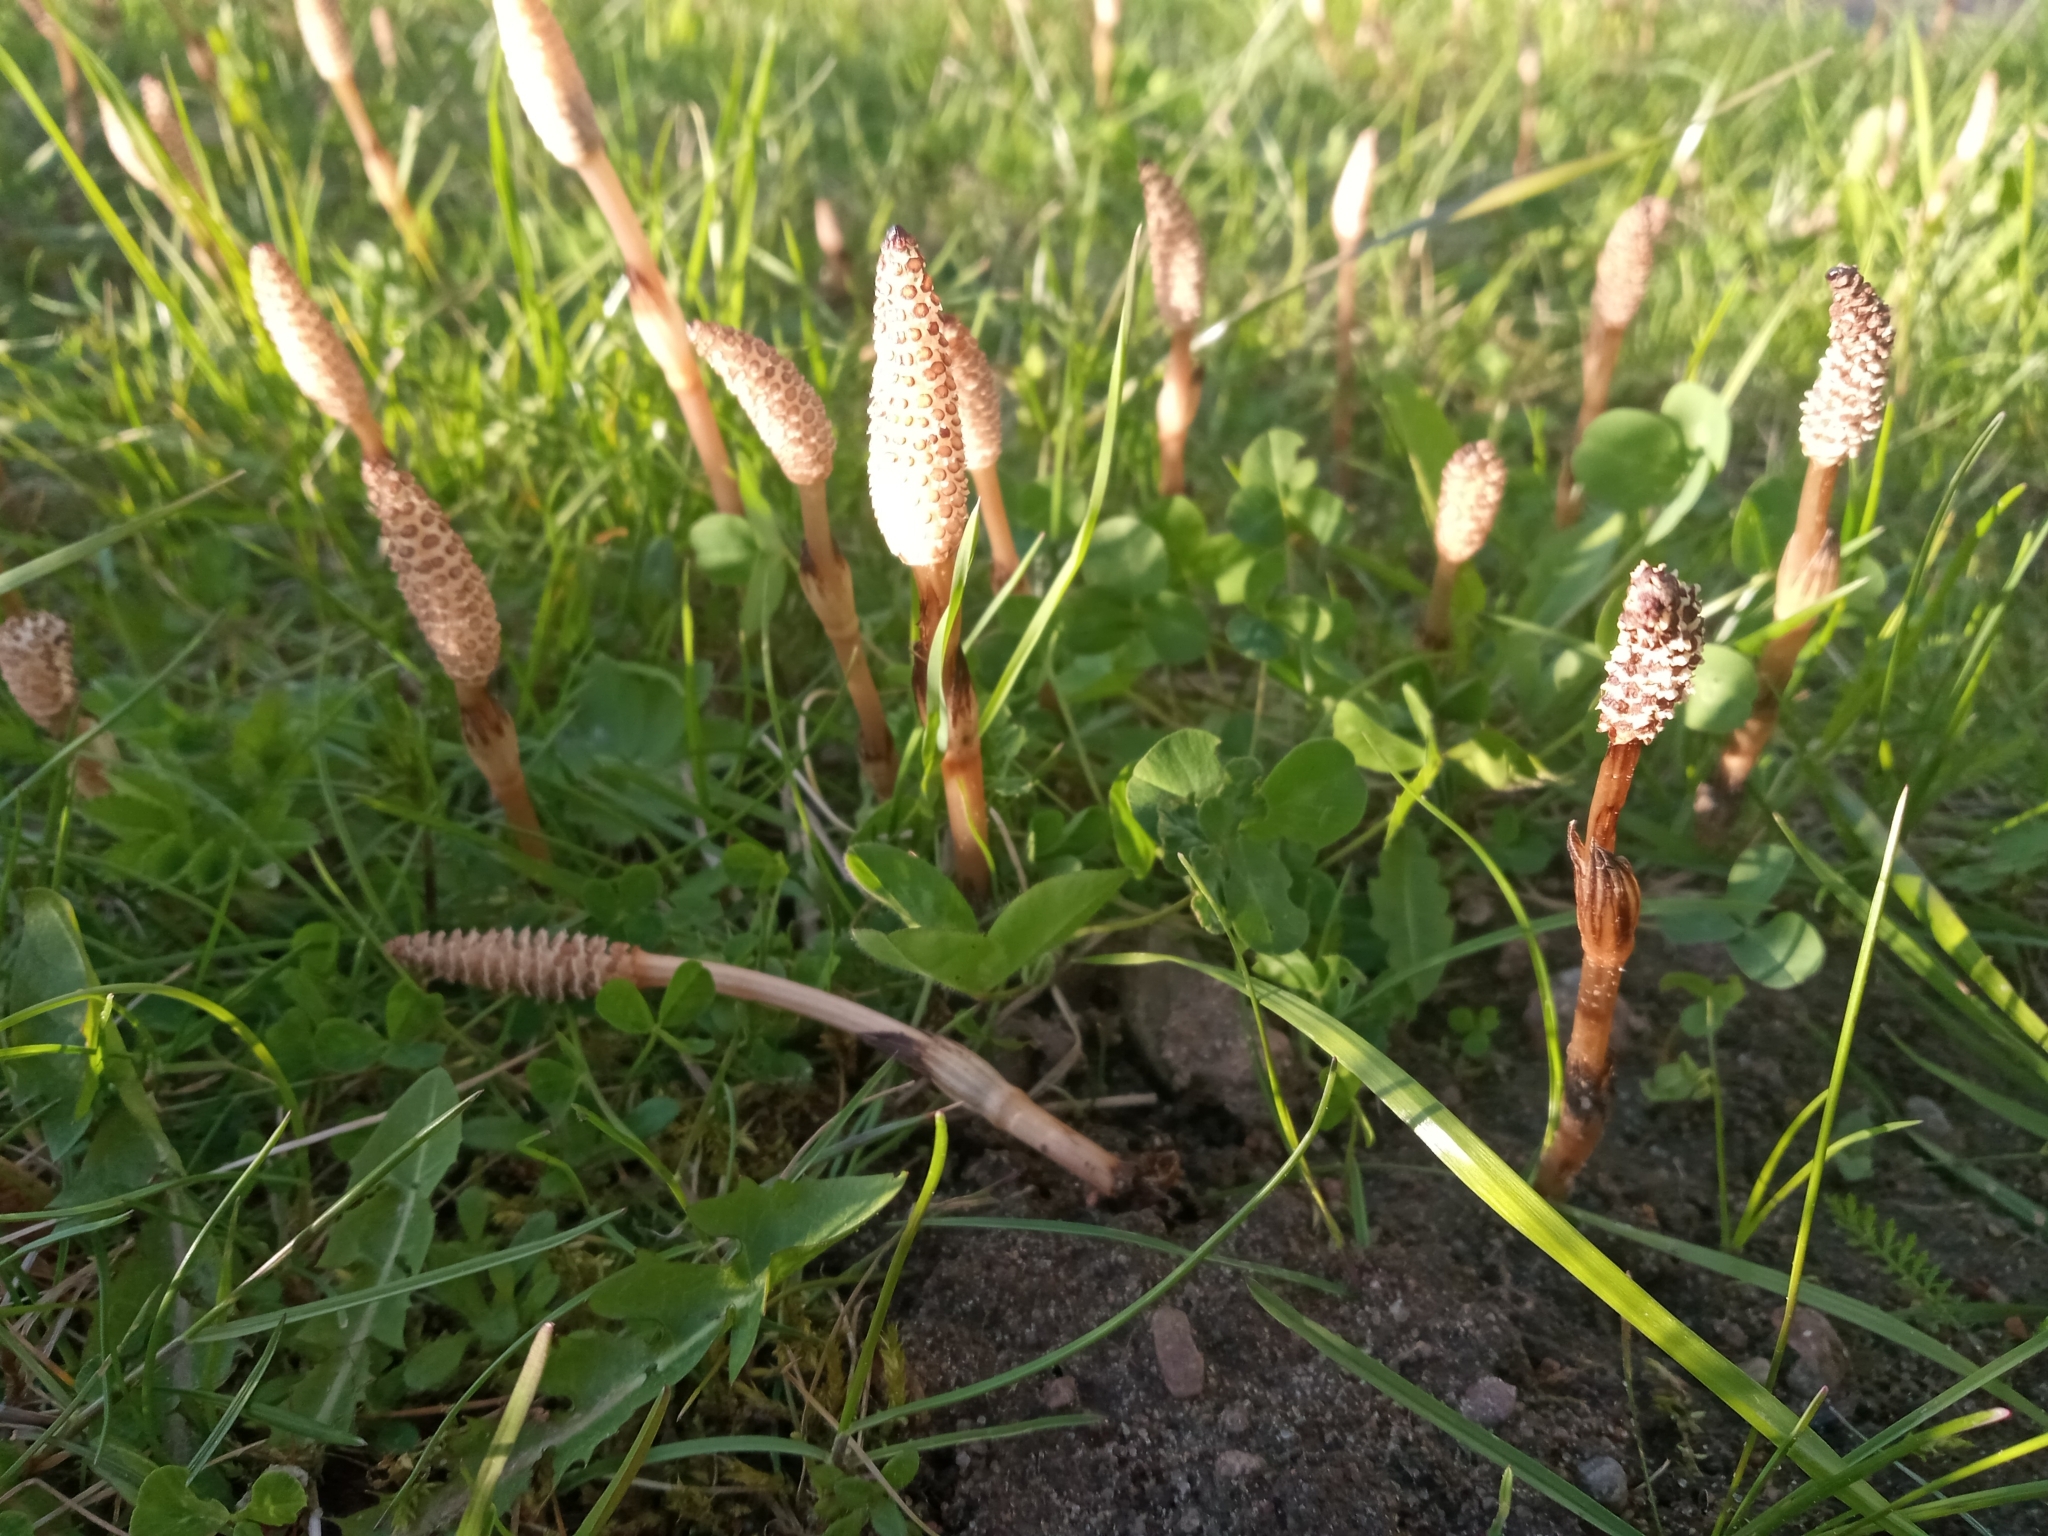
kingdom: Plantae
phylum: Tracheophyta
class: Polypodiopsida
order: Equisetales
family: Equisetaceae
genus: Equisetum
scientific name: Equisetum arvense
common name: Field horsetail
